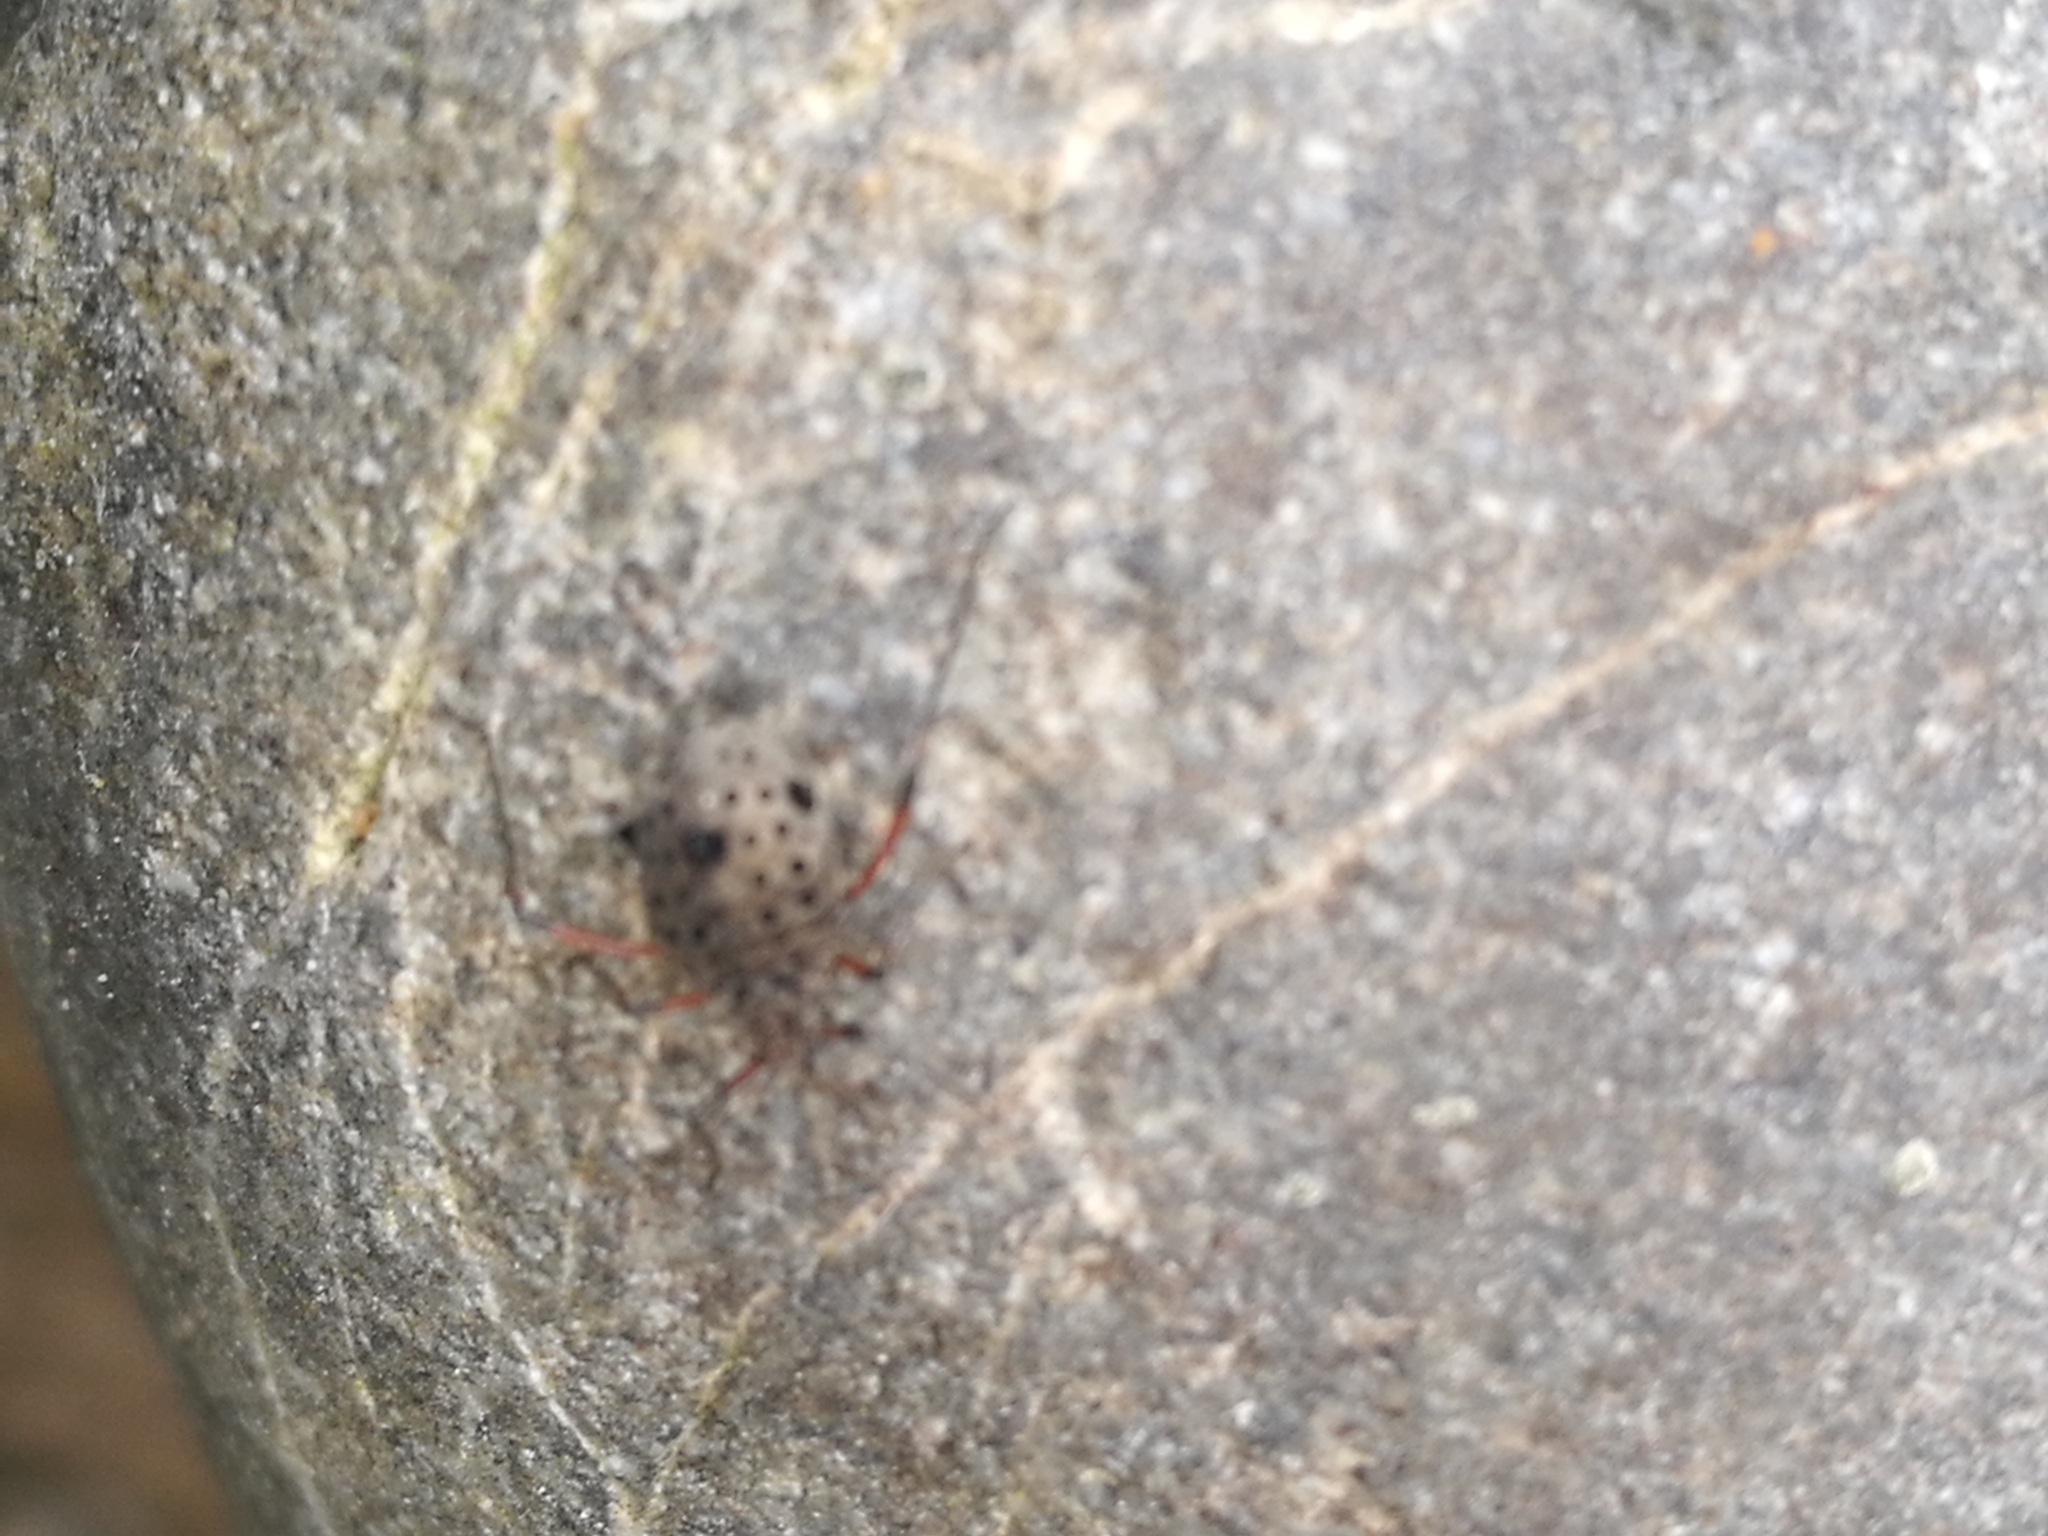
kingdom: Animalia
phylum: Arthropoda
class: Insecta
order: Hemiptera
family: Aphididae
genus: Tuberolachnus
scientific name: Tuberolachnus salignus
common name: Giant willow aphid
